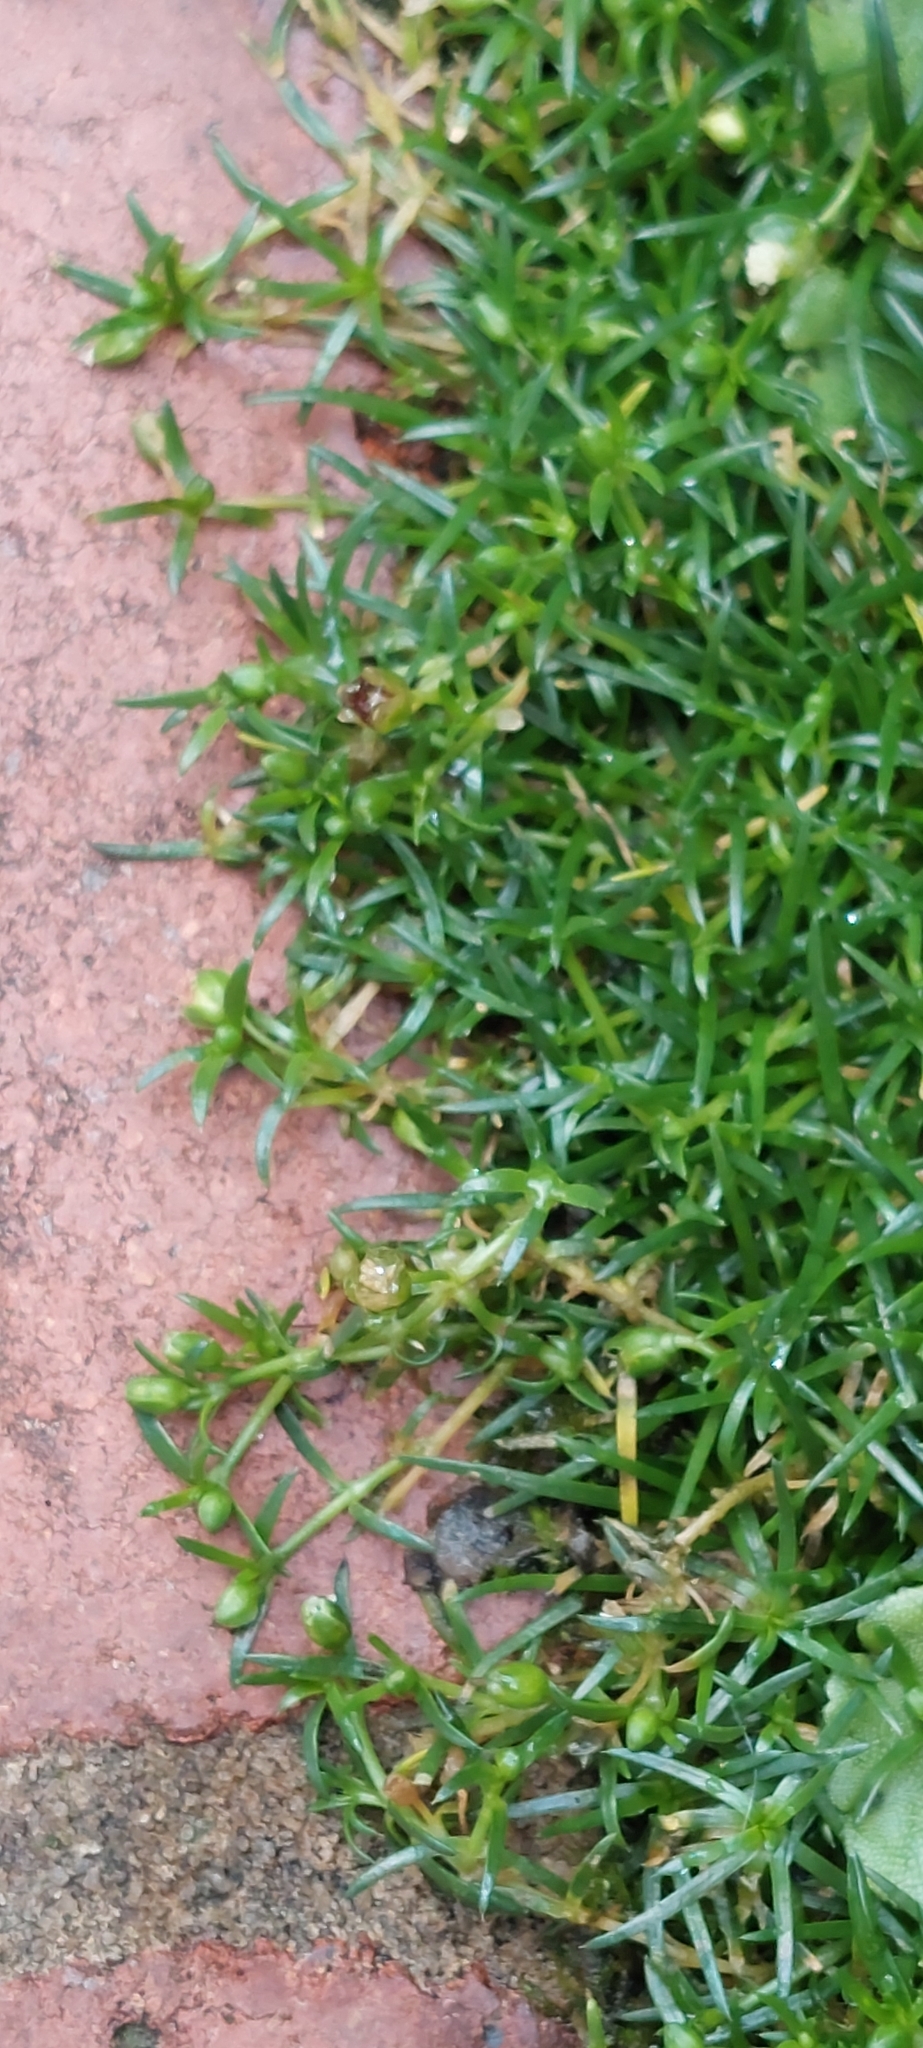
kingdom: Plantae
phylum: Tracheophyta
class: Magnoliopsida
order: Caryophyllales
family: Caryophyllaceae
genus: Sagina
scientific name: Sagina procumbens
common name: Procumbent pearlwort
